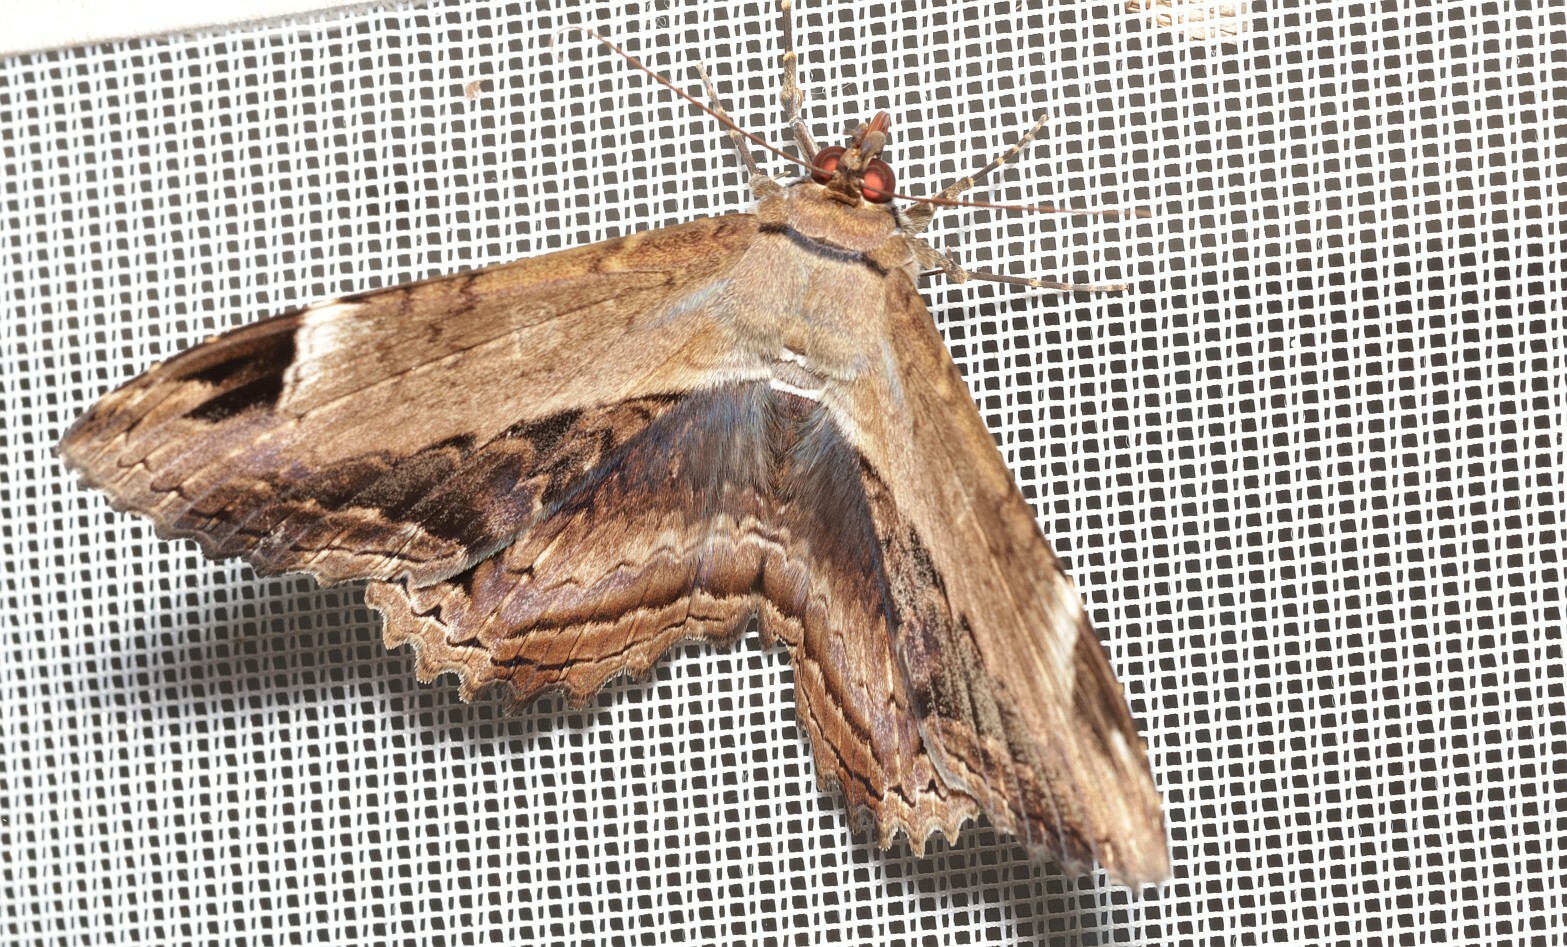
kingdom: Animalia
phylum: Arthropoda
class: Insecta
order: Lepidoptera
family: Noctuidae
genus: Ronania
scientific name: Ronania
